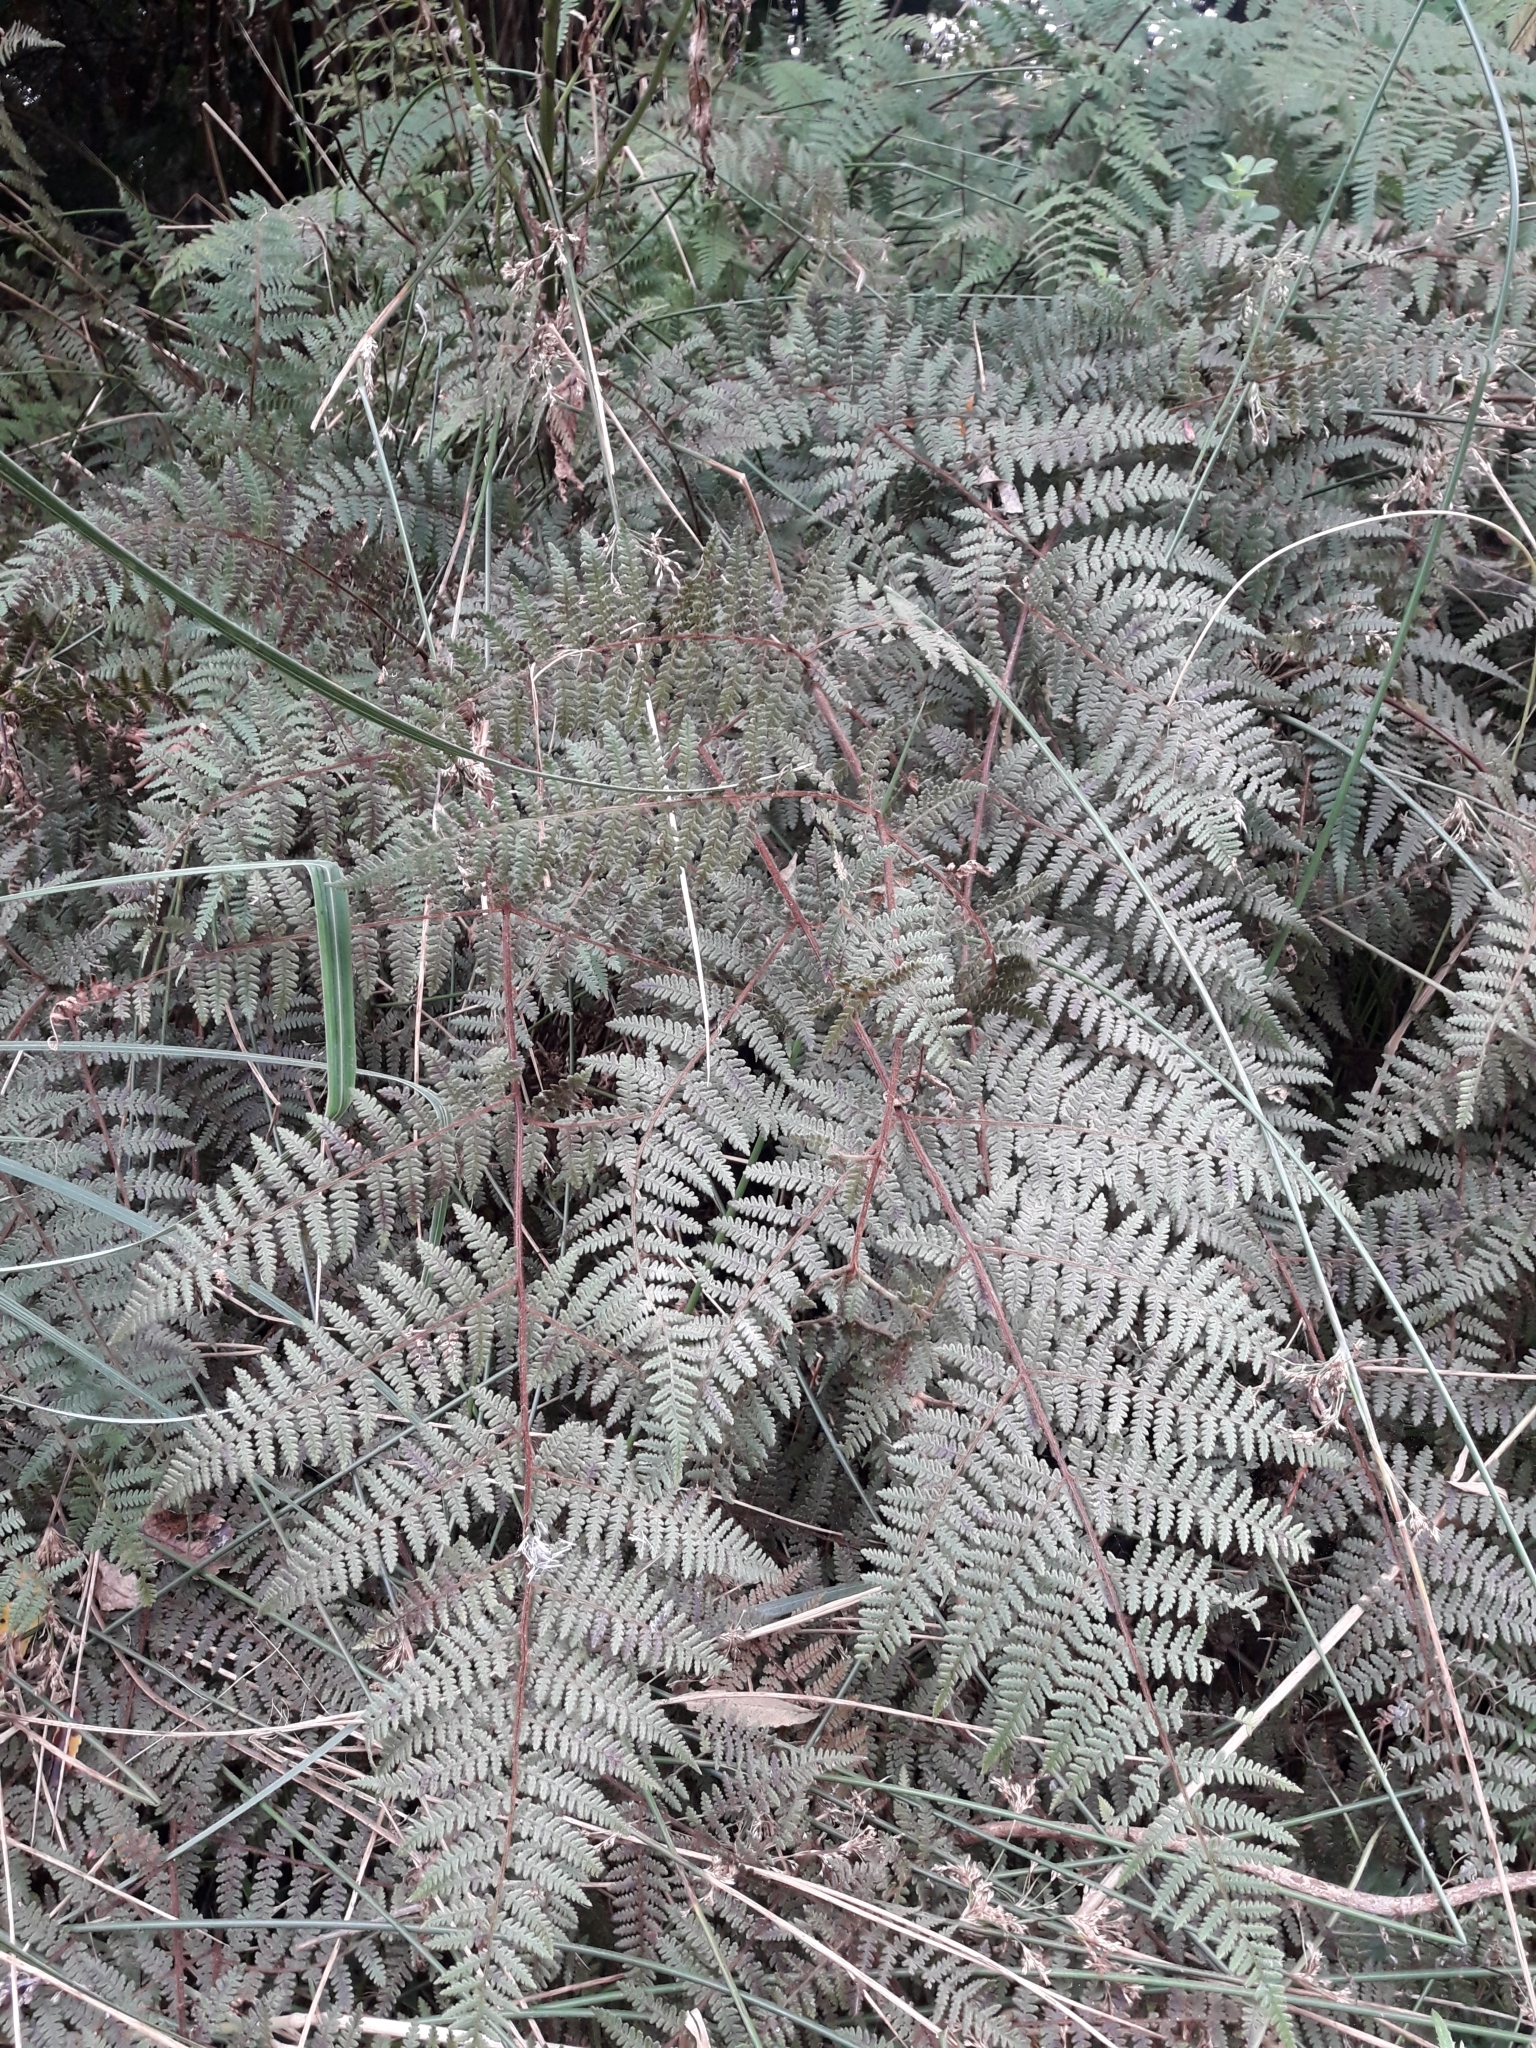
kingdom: Plantae
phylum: Tracheophyta
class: Polypodiopsida
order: Polypodiales
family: Dennstaedtiaceae
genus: Hypolepis
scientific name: Hypolepis rugosula
